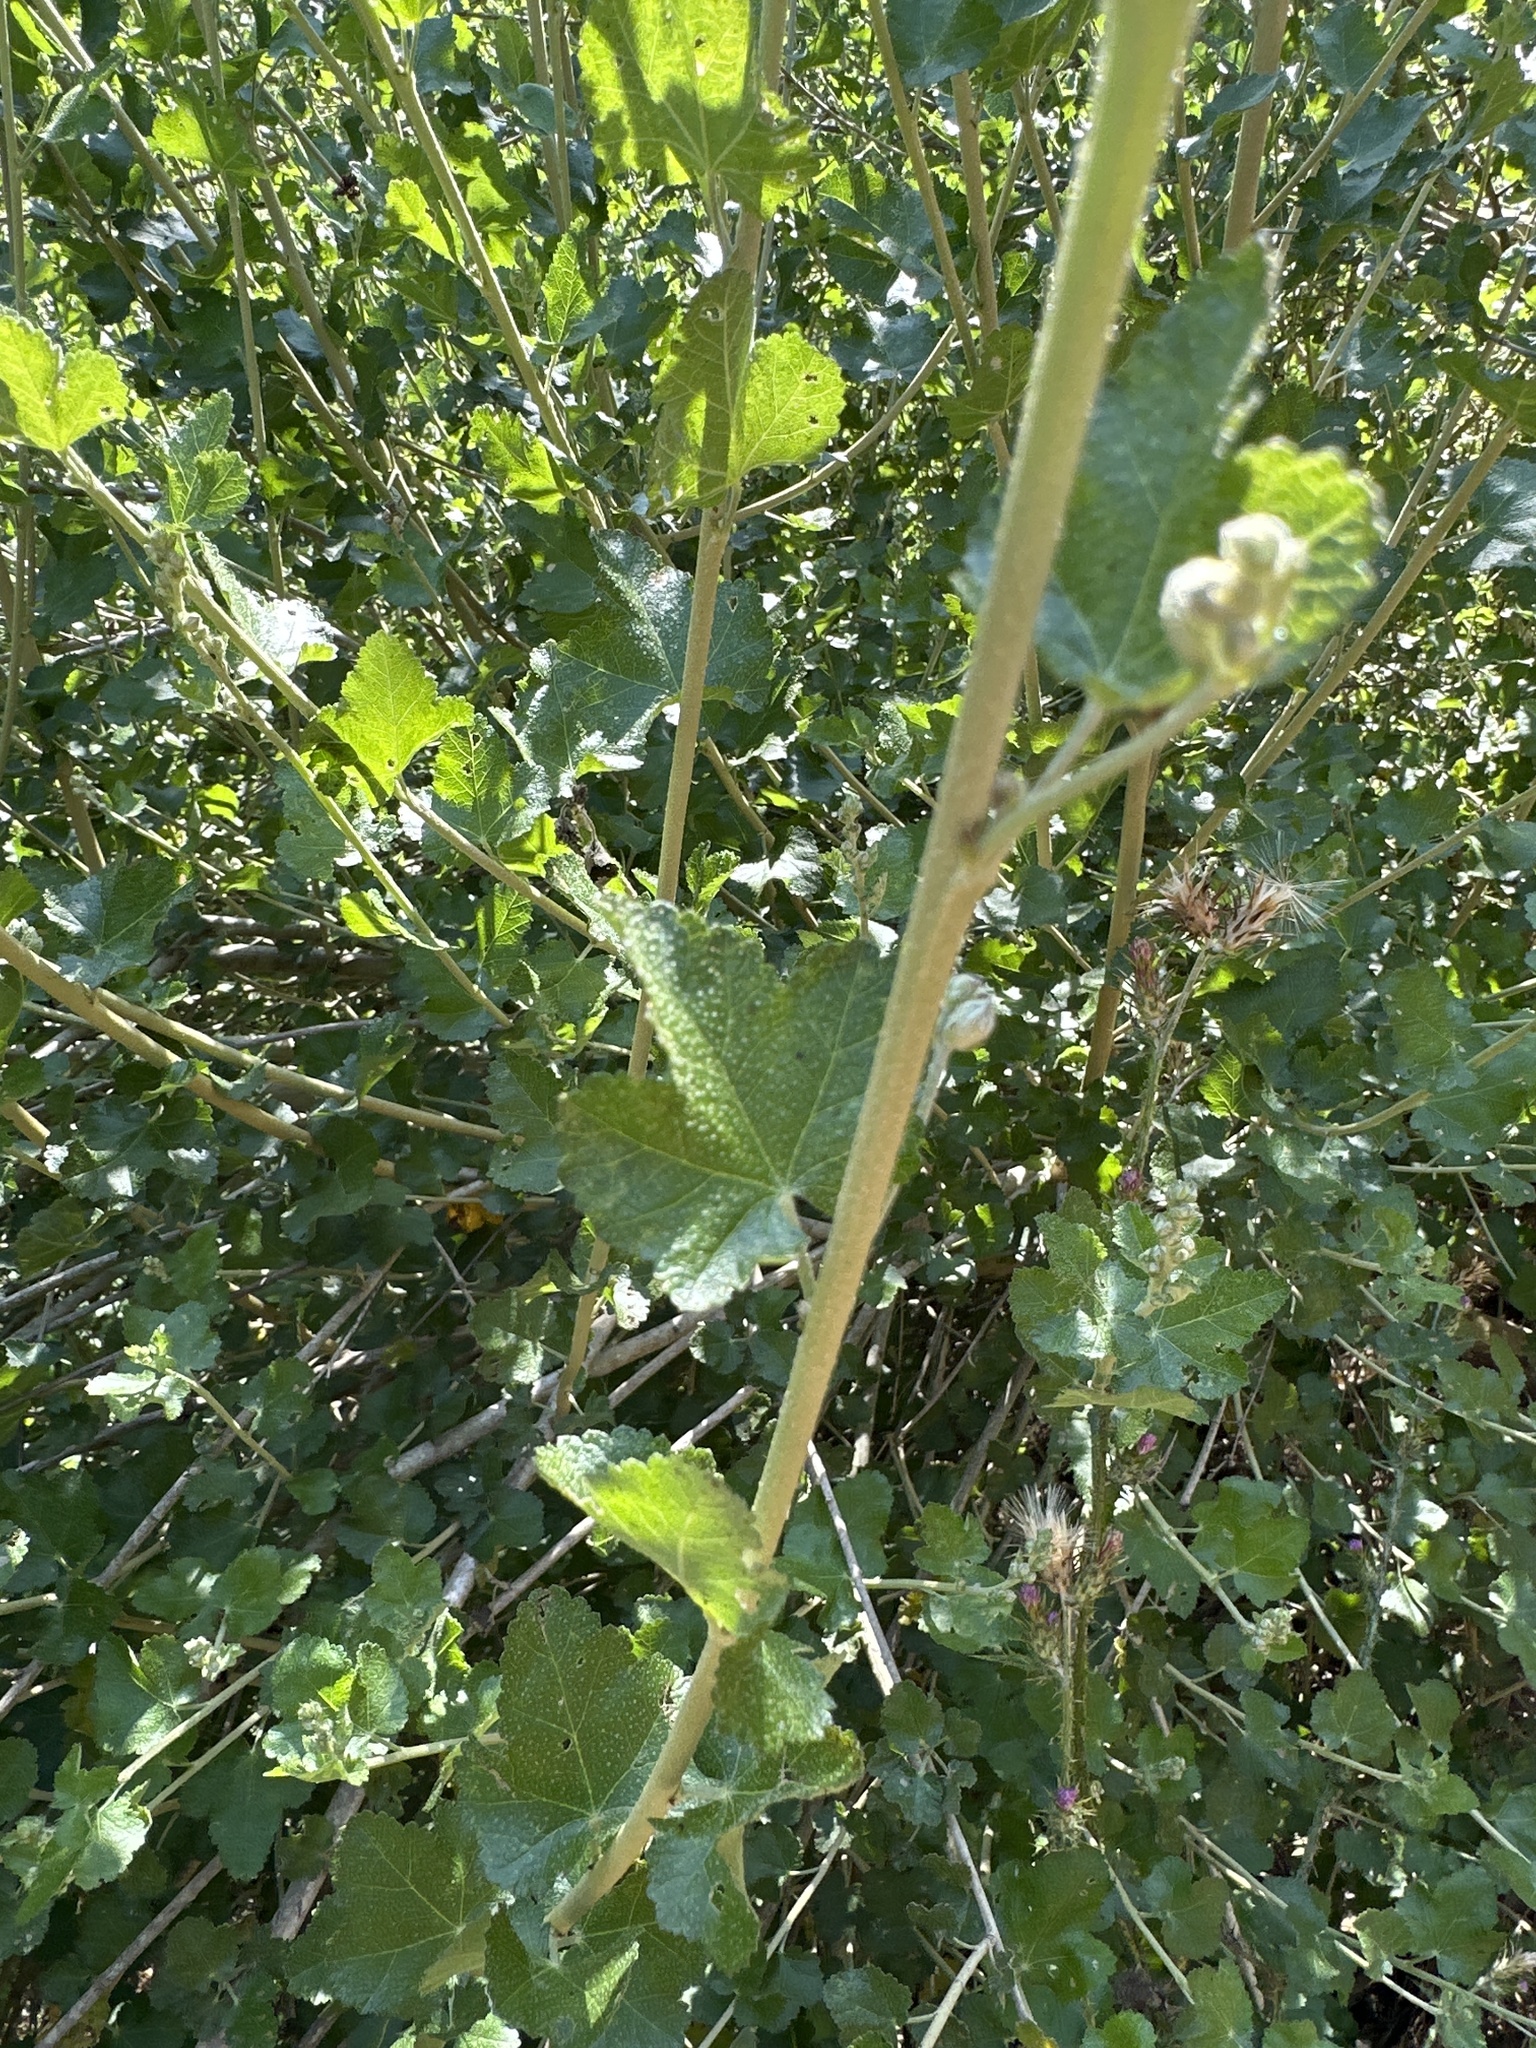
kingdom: Plantae
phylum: Tracheophyta
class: Magnoliopsida
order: Malvales
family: Malvaceae
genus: Malacothamnus
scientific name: Malacothamnus fasciculatus
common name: Sant cruz island bush-mallow
